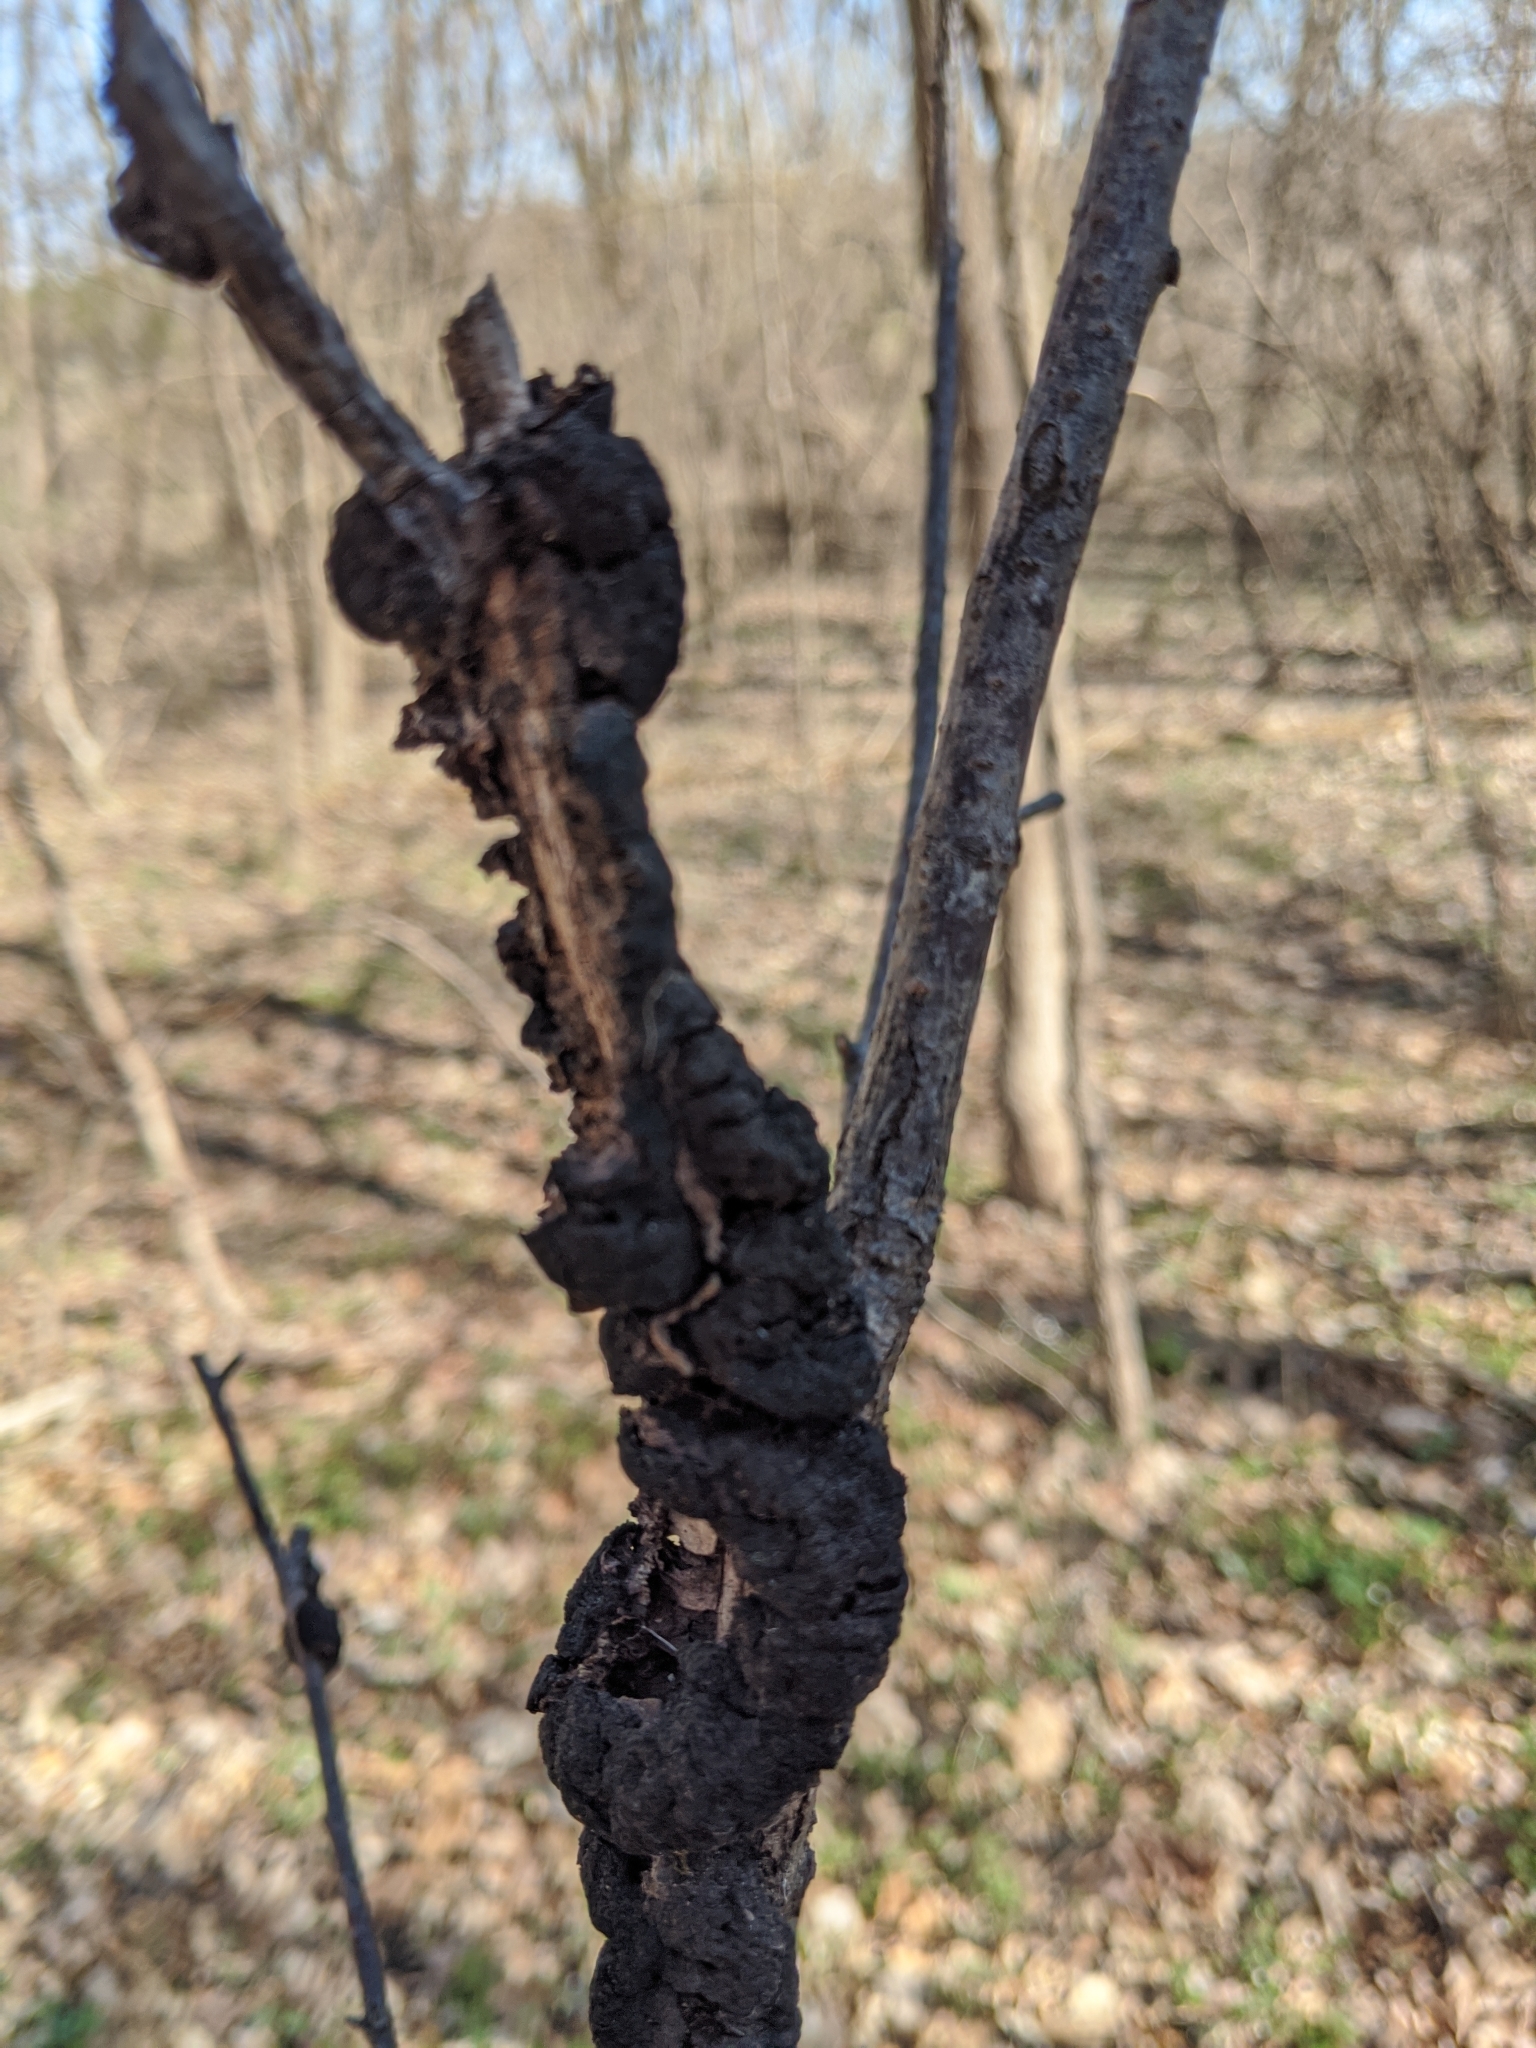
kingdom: Fungi
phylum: Ascomycota
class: Dothideomycetes
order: Venturiales
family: Venturiaceae
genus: Apiosporina
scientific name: Apiosporina morbosa
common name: Black knot
